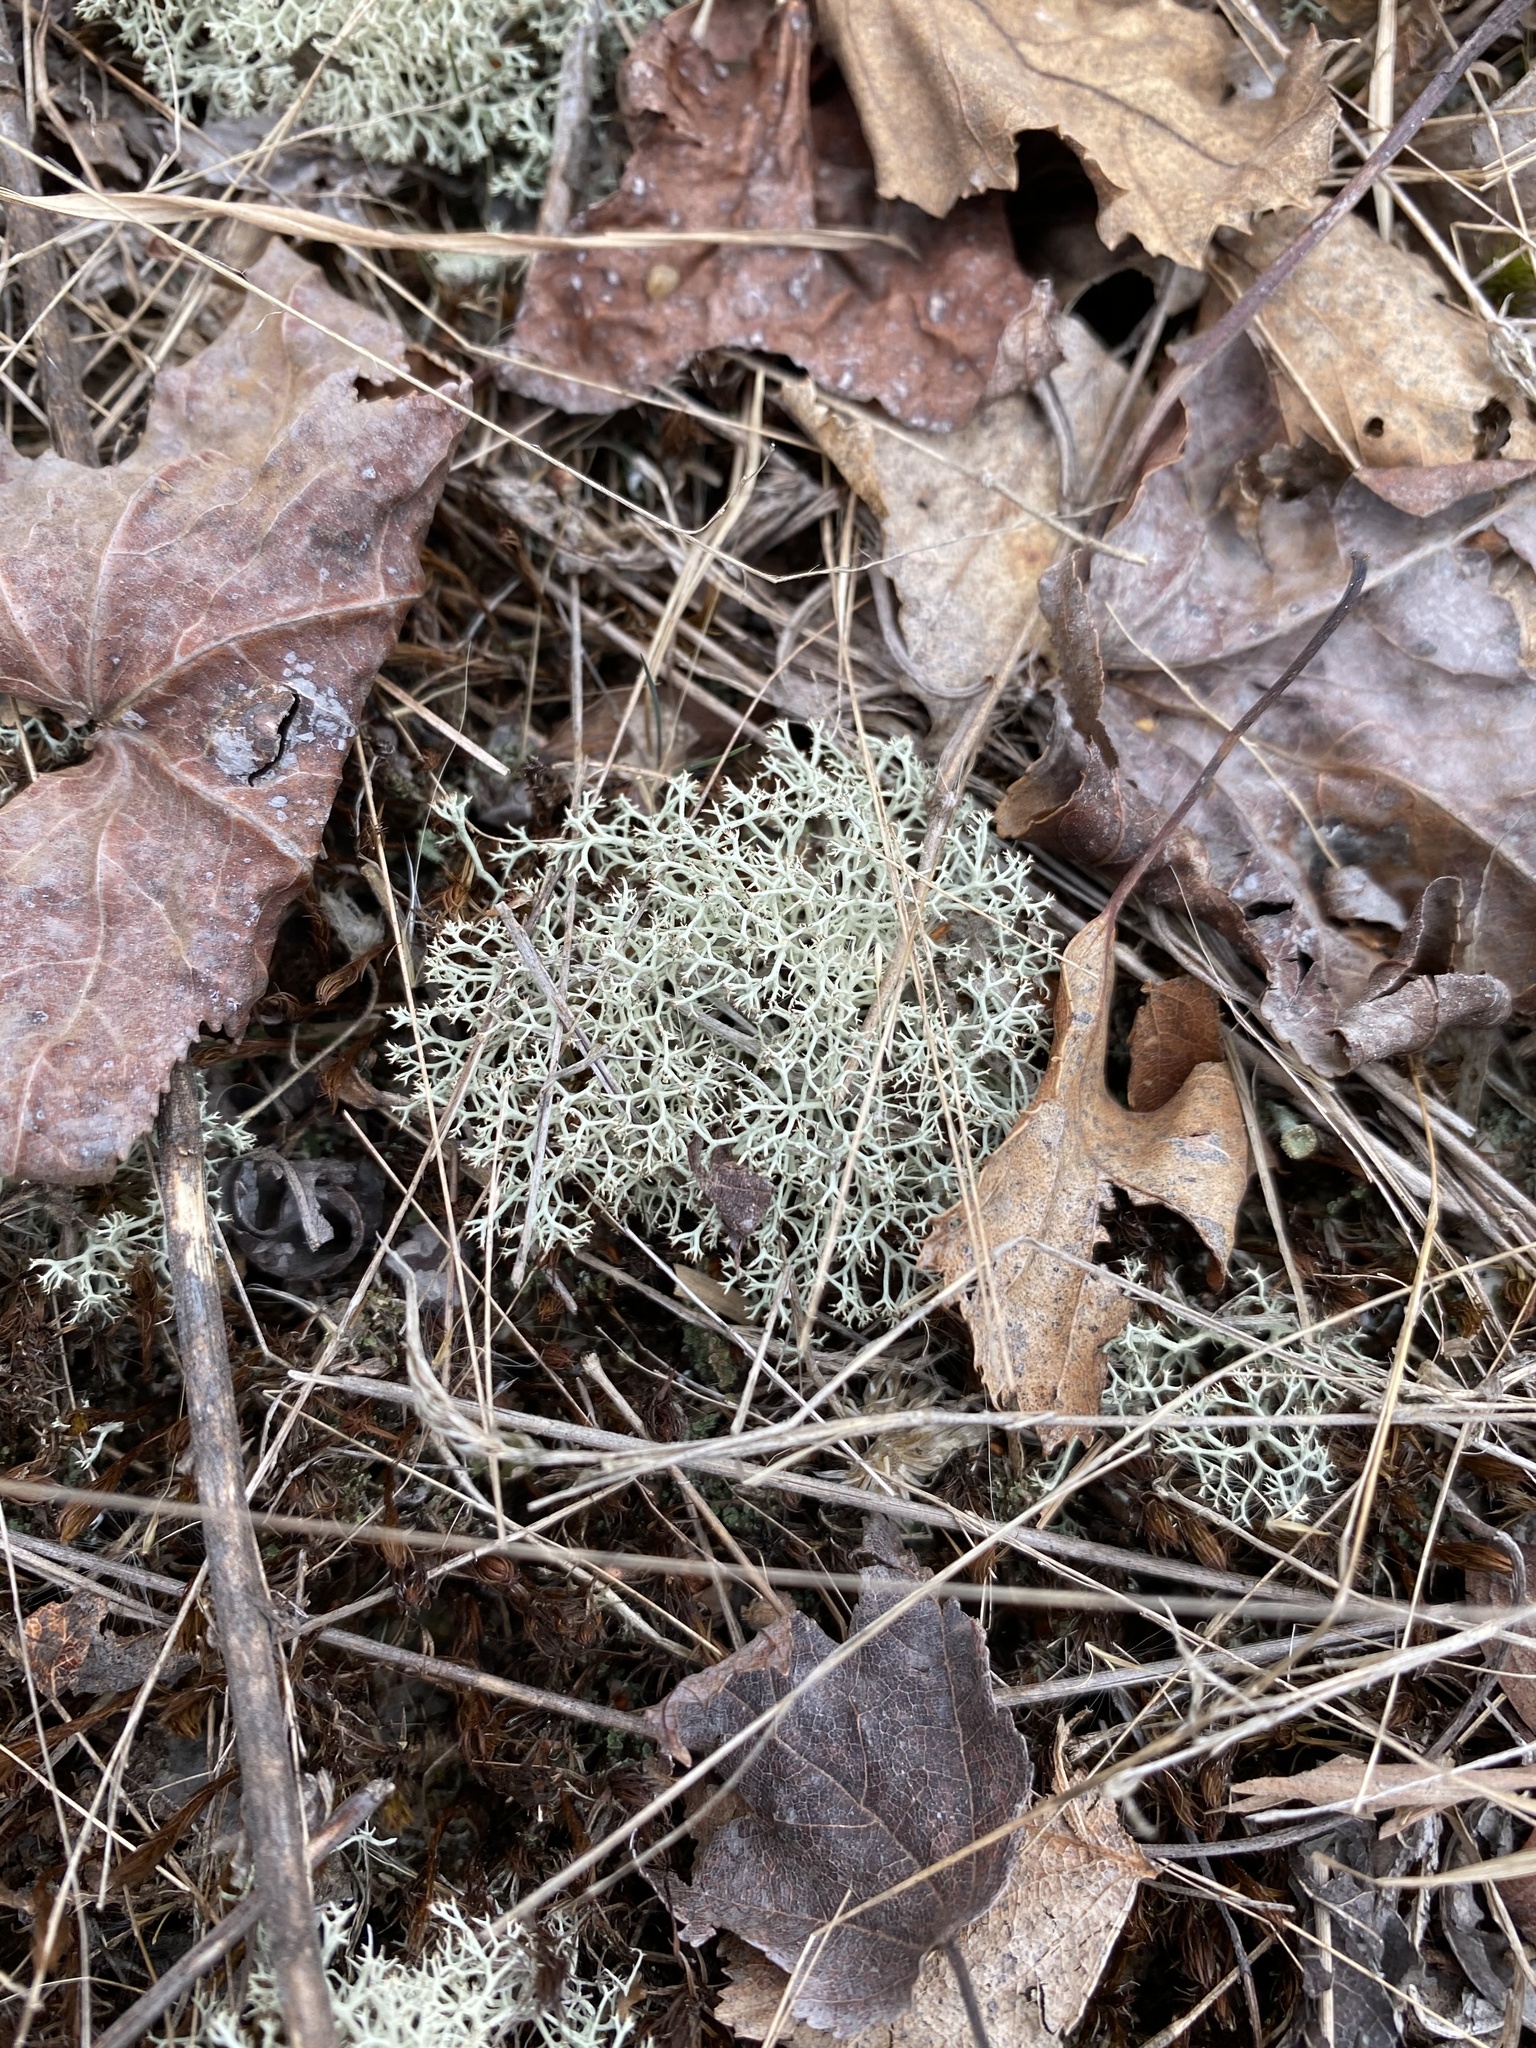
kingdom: Fungi
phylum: Ascomycota
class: Lecanoromycetes
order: Lecanorales
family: Cladoniaceae
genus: Cladonia
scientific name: Cladonia subtenuis
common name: Dixie reindeer lichen
